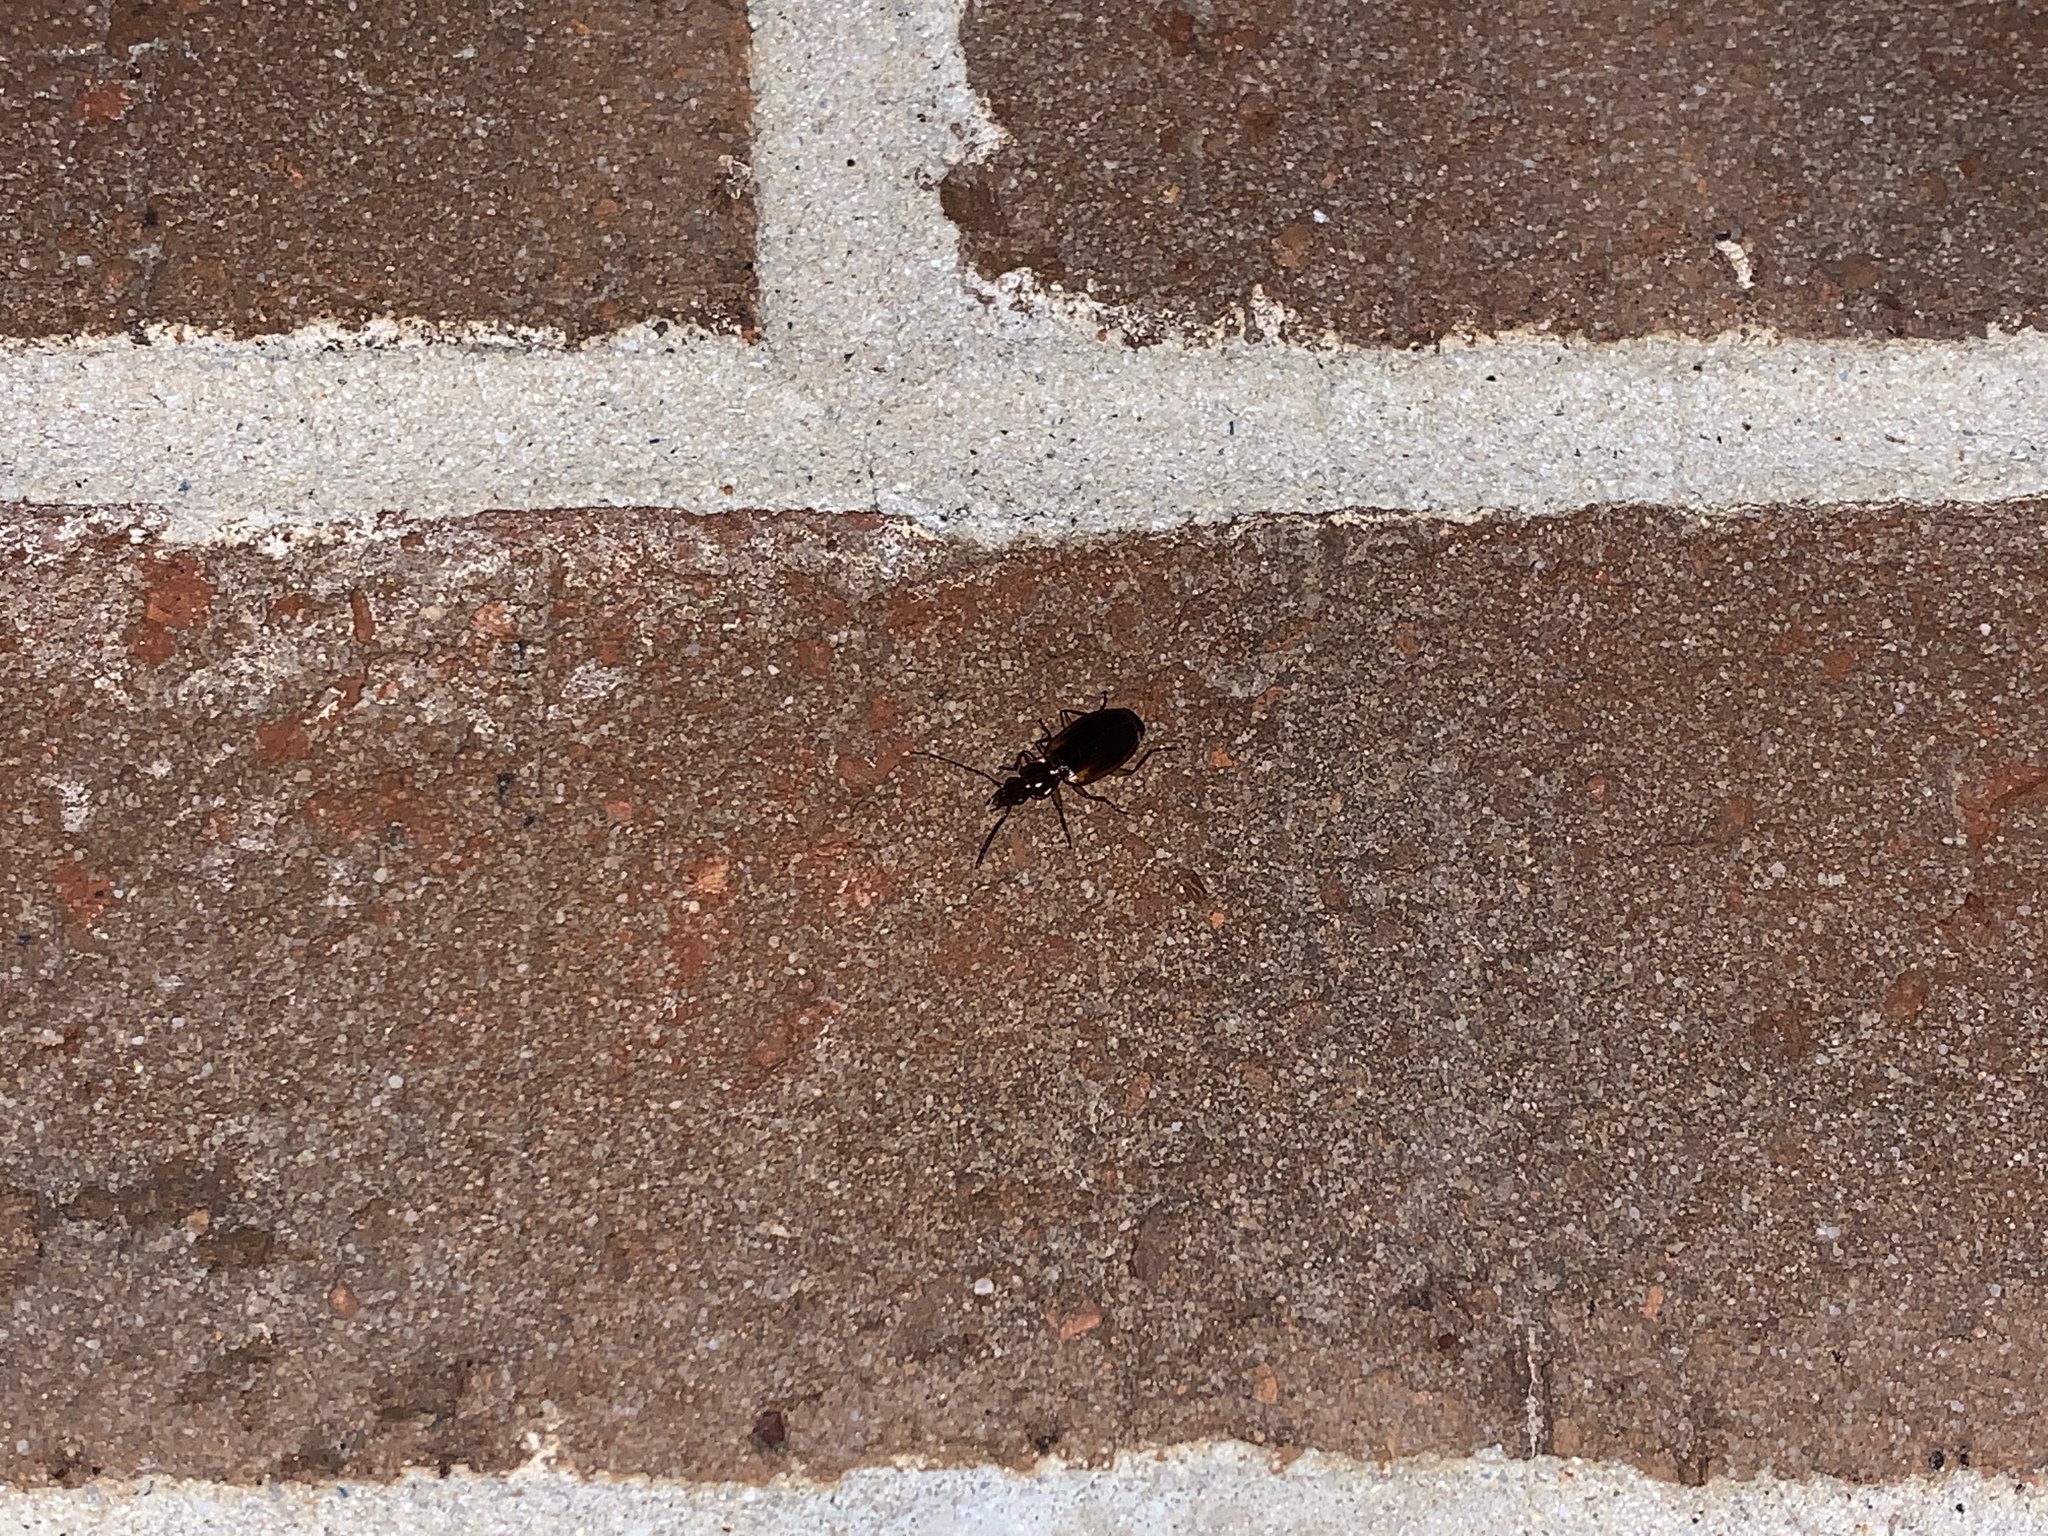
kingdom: Animalia
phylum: Arthropoda
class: Insecta
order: Coleoptera
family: Carabidae
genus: Pinacodera
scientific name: Pinacodera limbata
